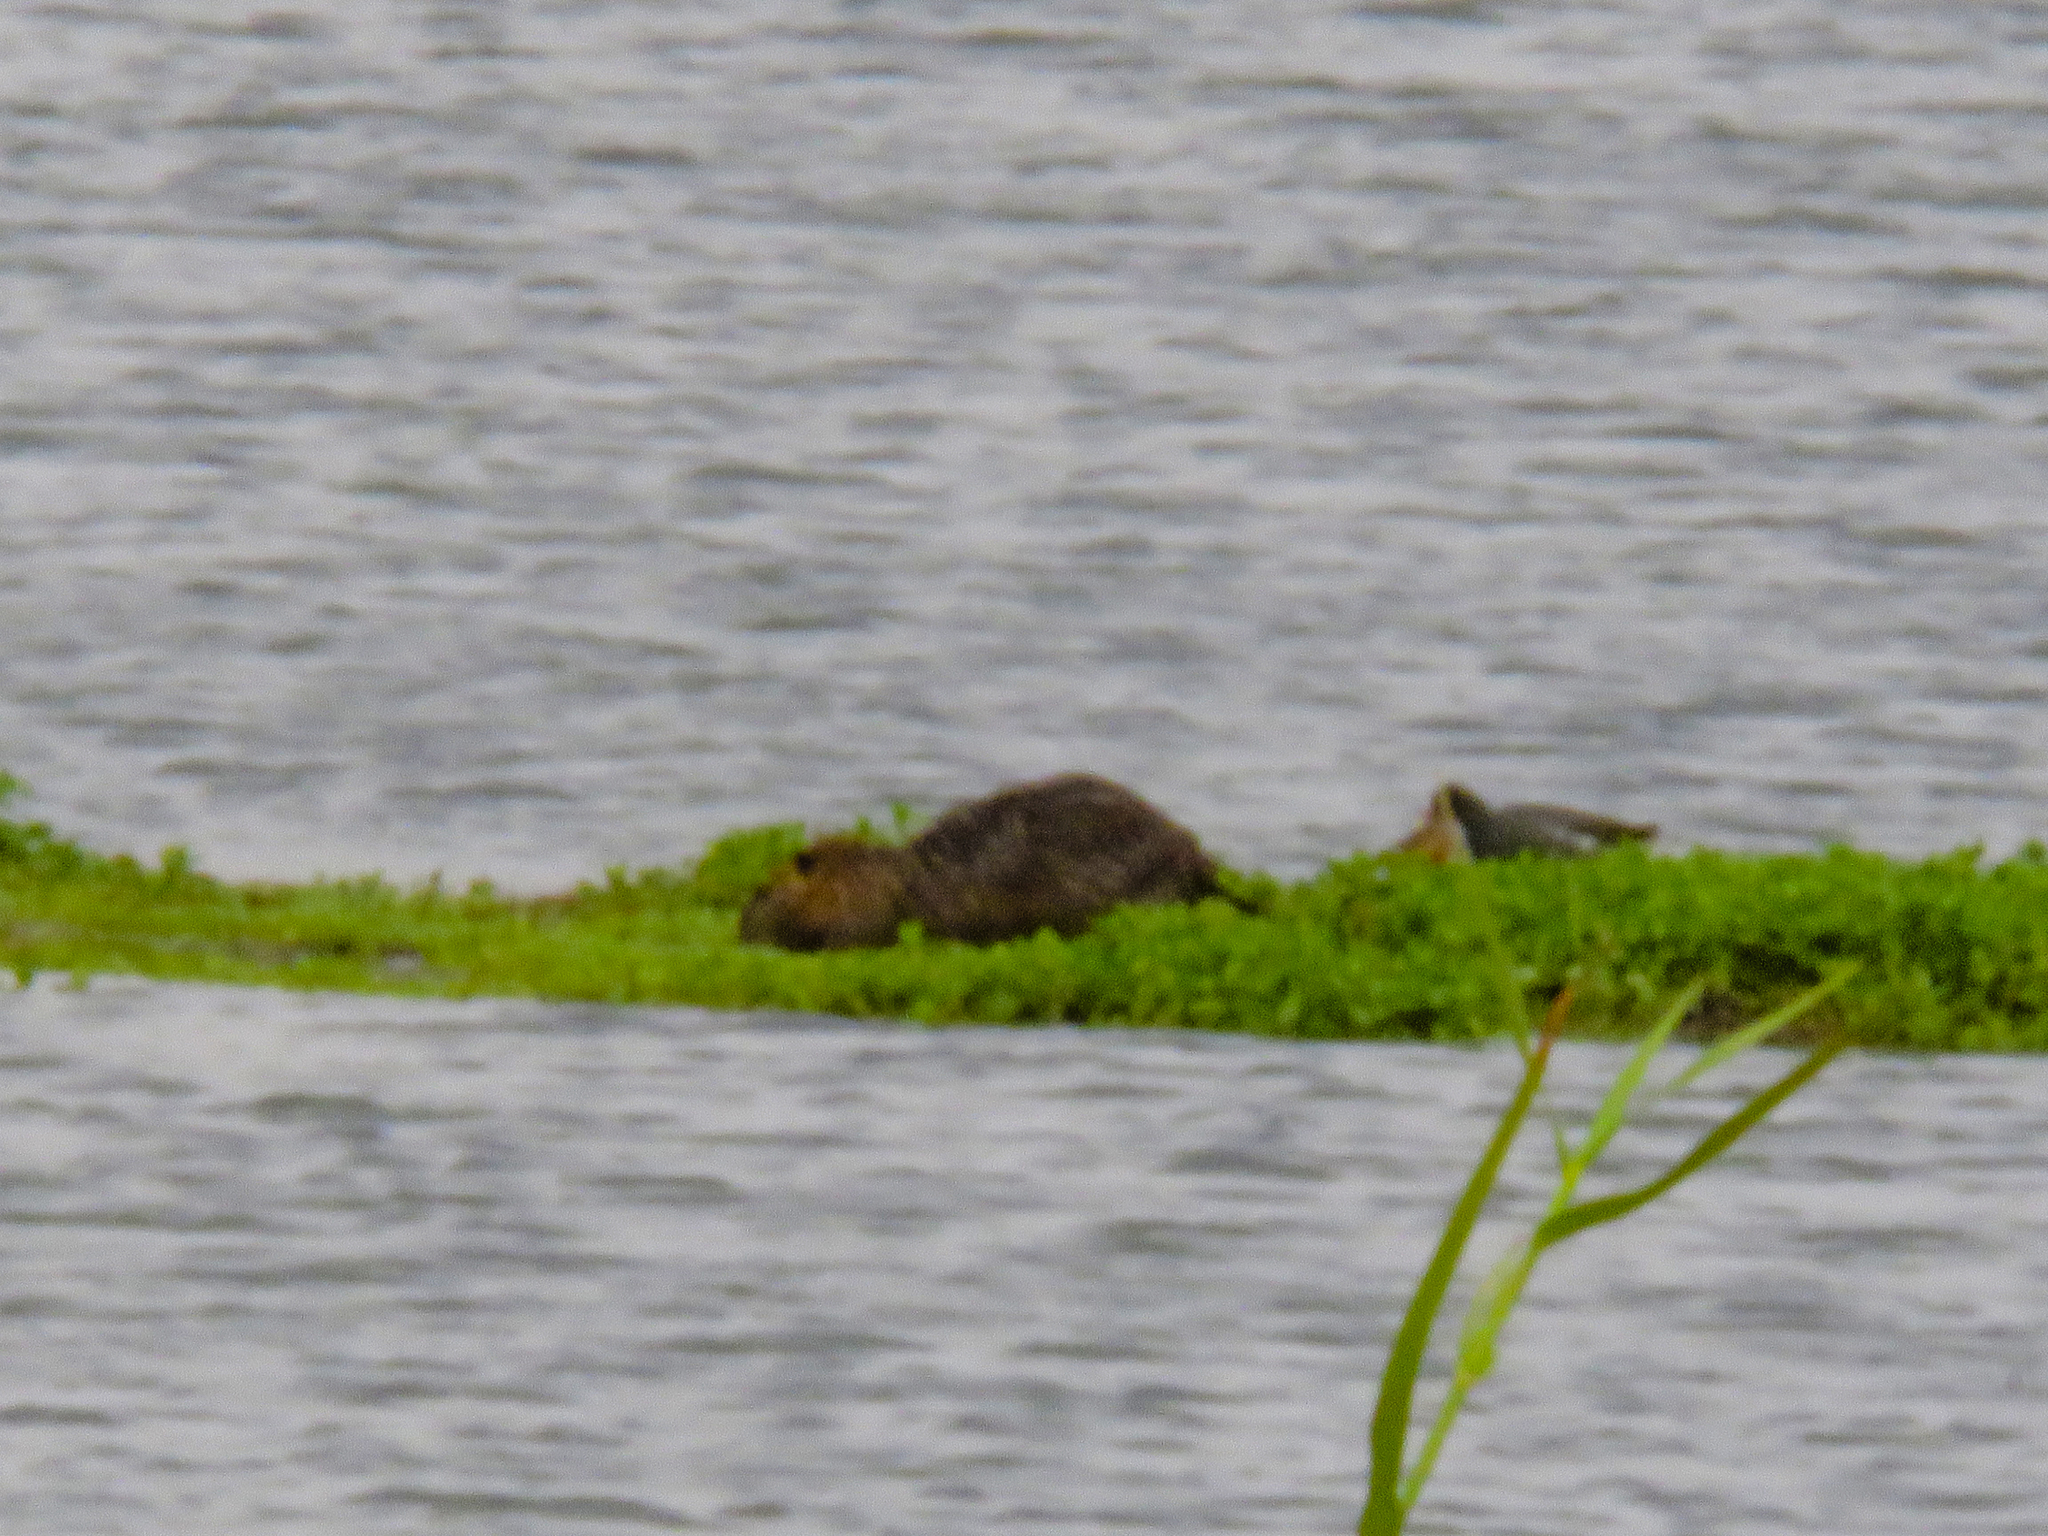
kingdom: Animalia
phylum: Chordata
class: Mammalia
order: Rodentia
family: Myocastoridae
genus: Myocastor
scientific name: Myocastor coypus
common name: Coypu
